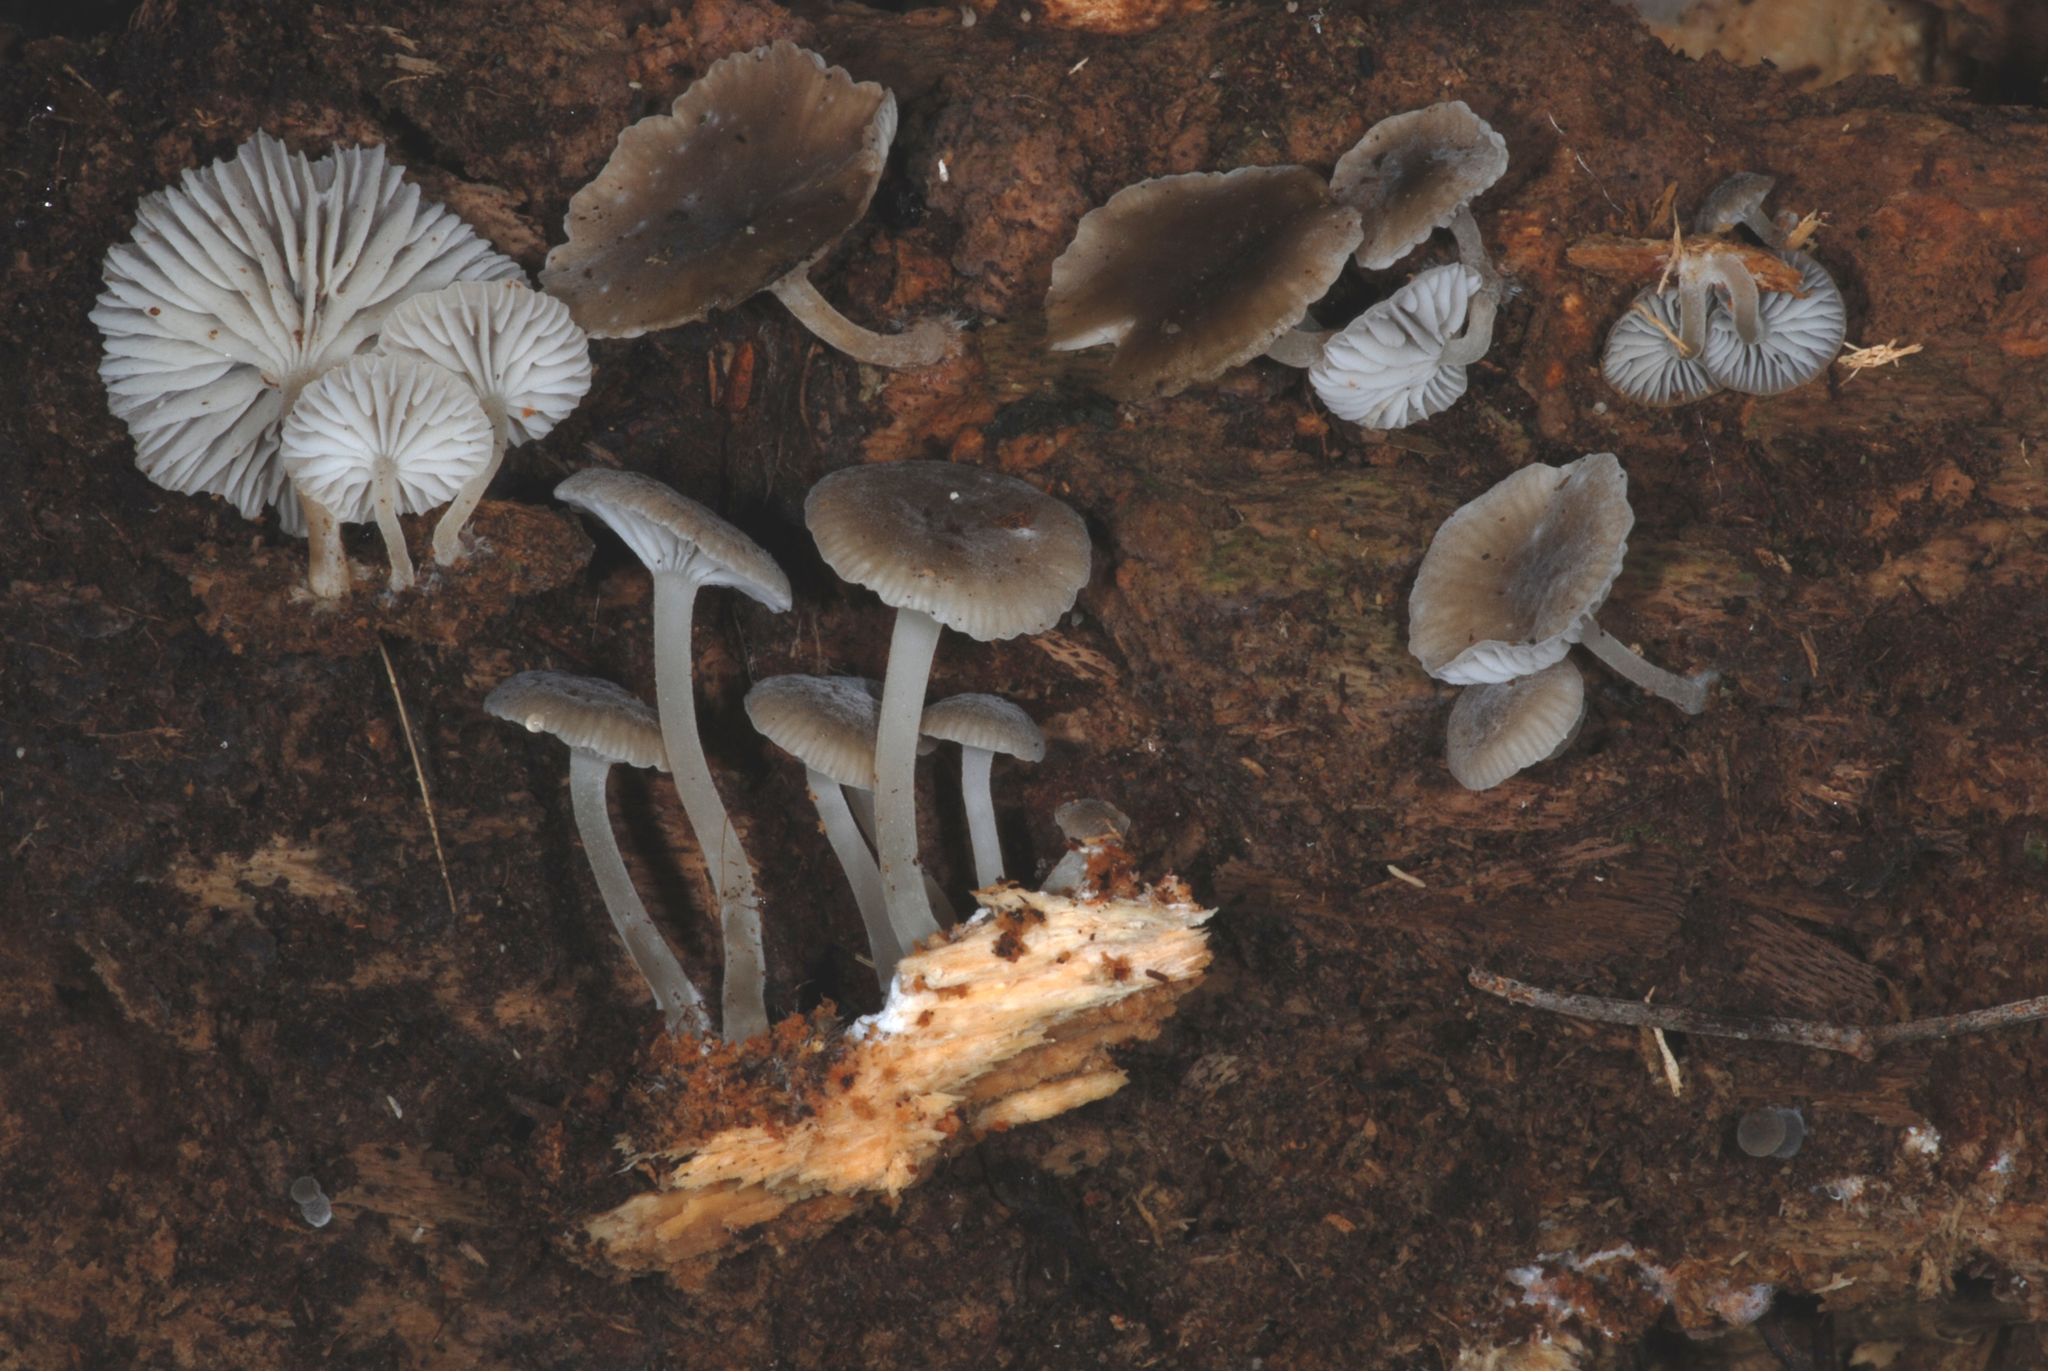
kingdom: Fungi
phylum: Basidiomycota
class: Agaricomycetes
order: Agaricales
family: Mycenaceae
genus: Hydropus
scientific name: Hydropus
